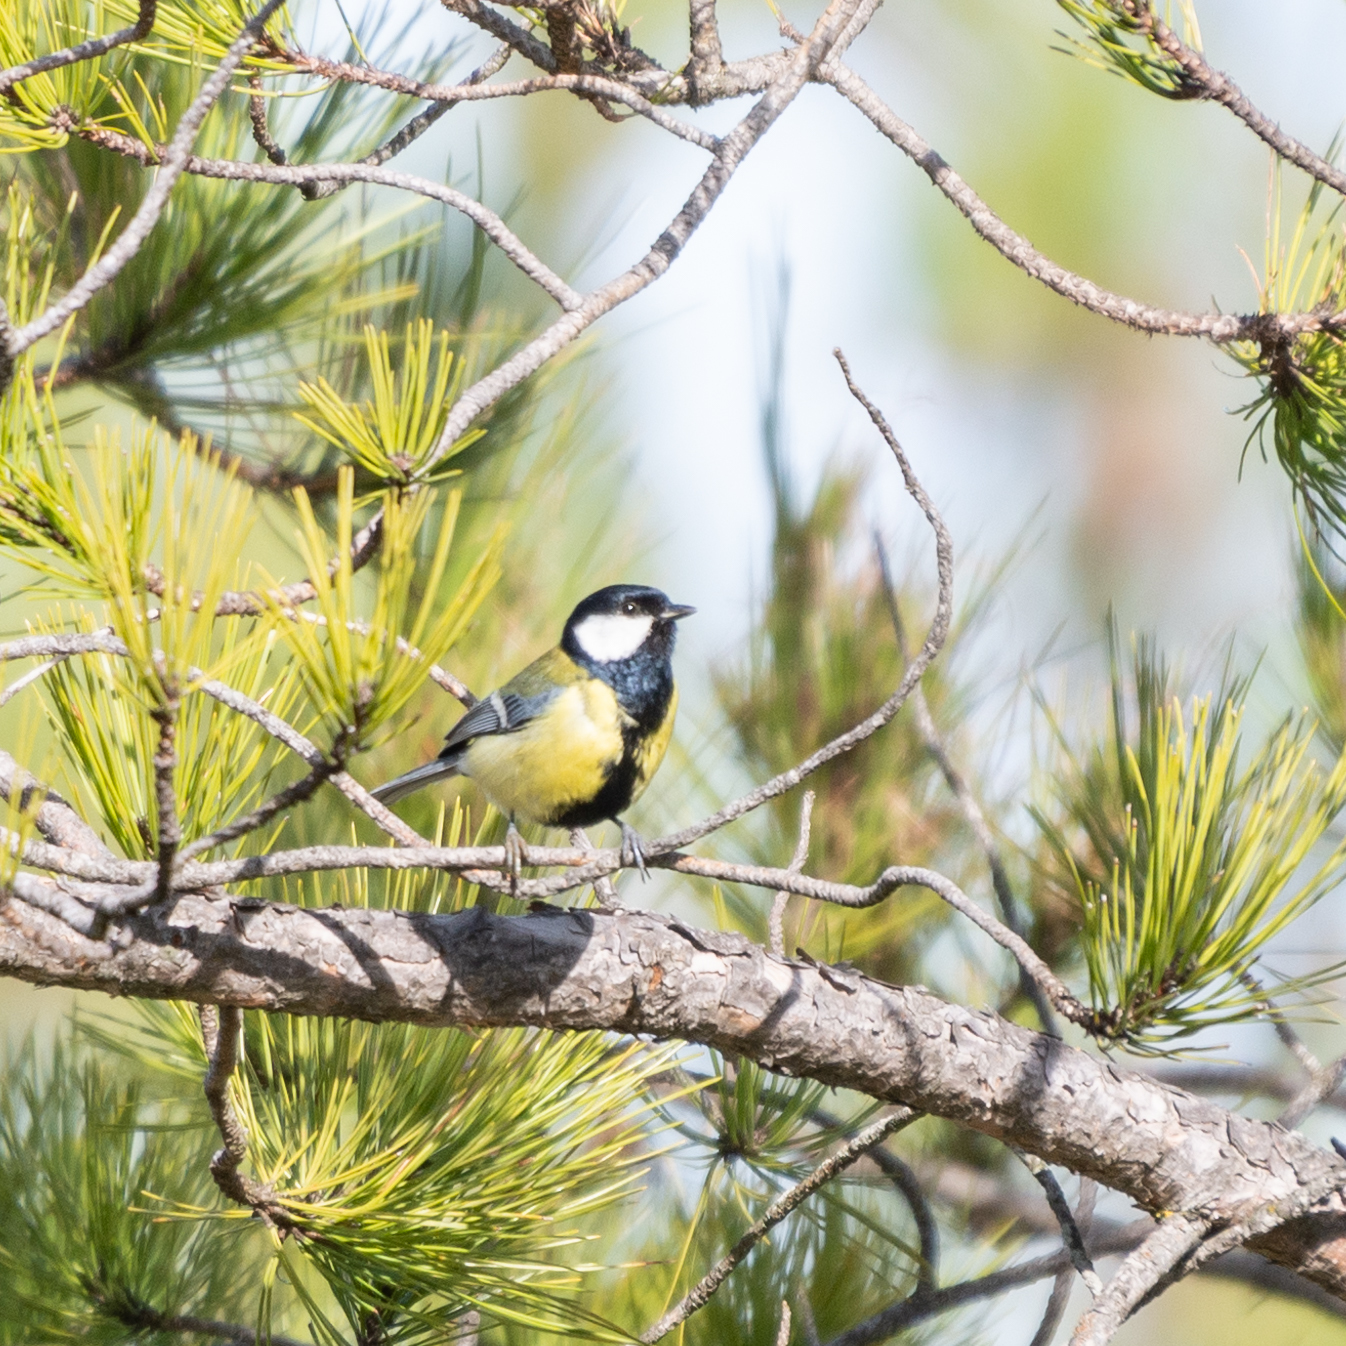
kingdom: Animalia
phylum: Chordata
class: Aves
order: Passeriformes
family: Paridae
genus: Parus
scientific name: Parus major
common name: Great tit
